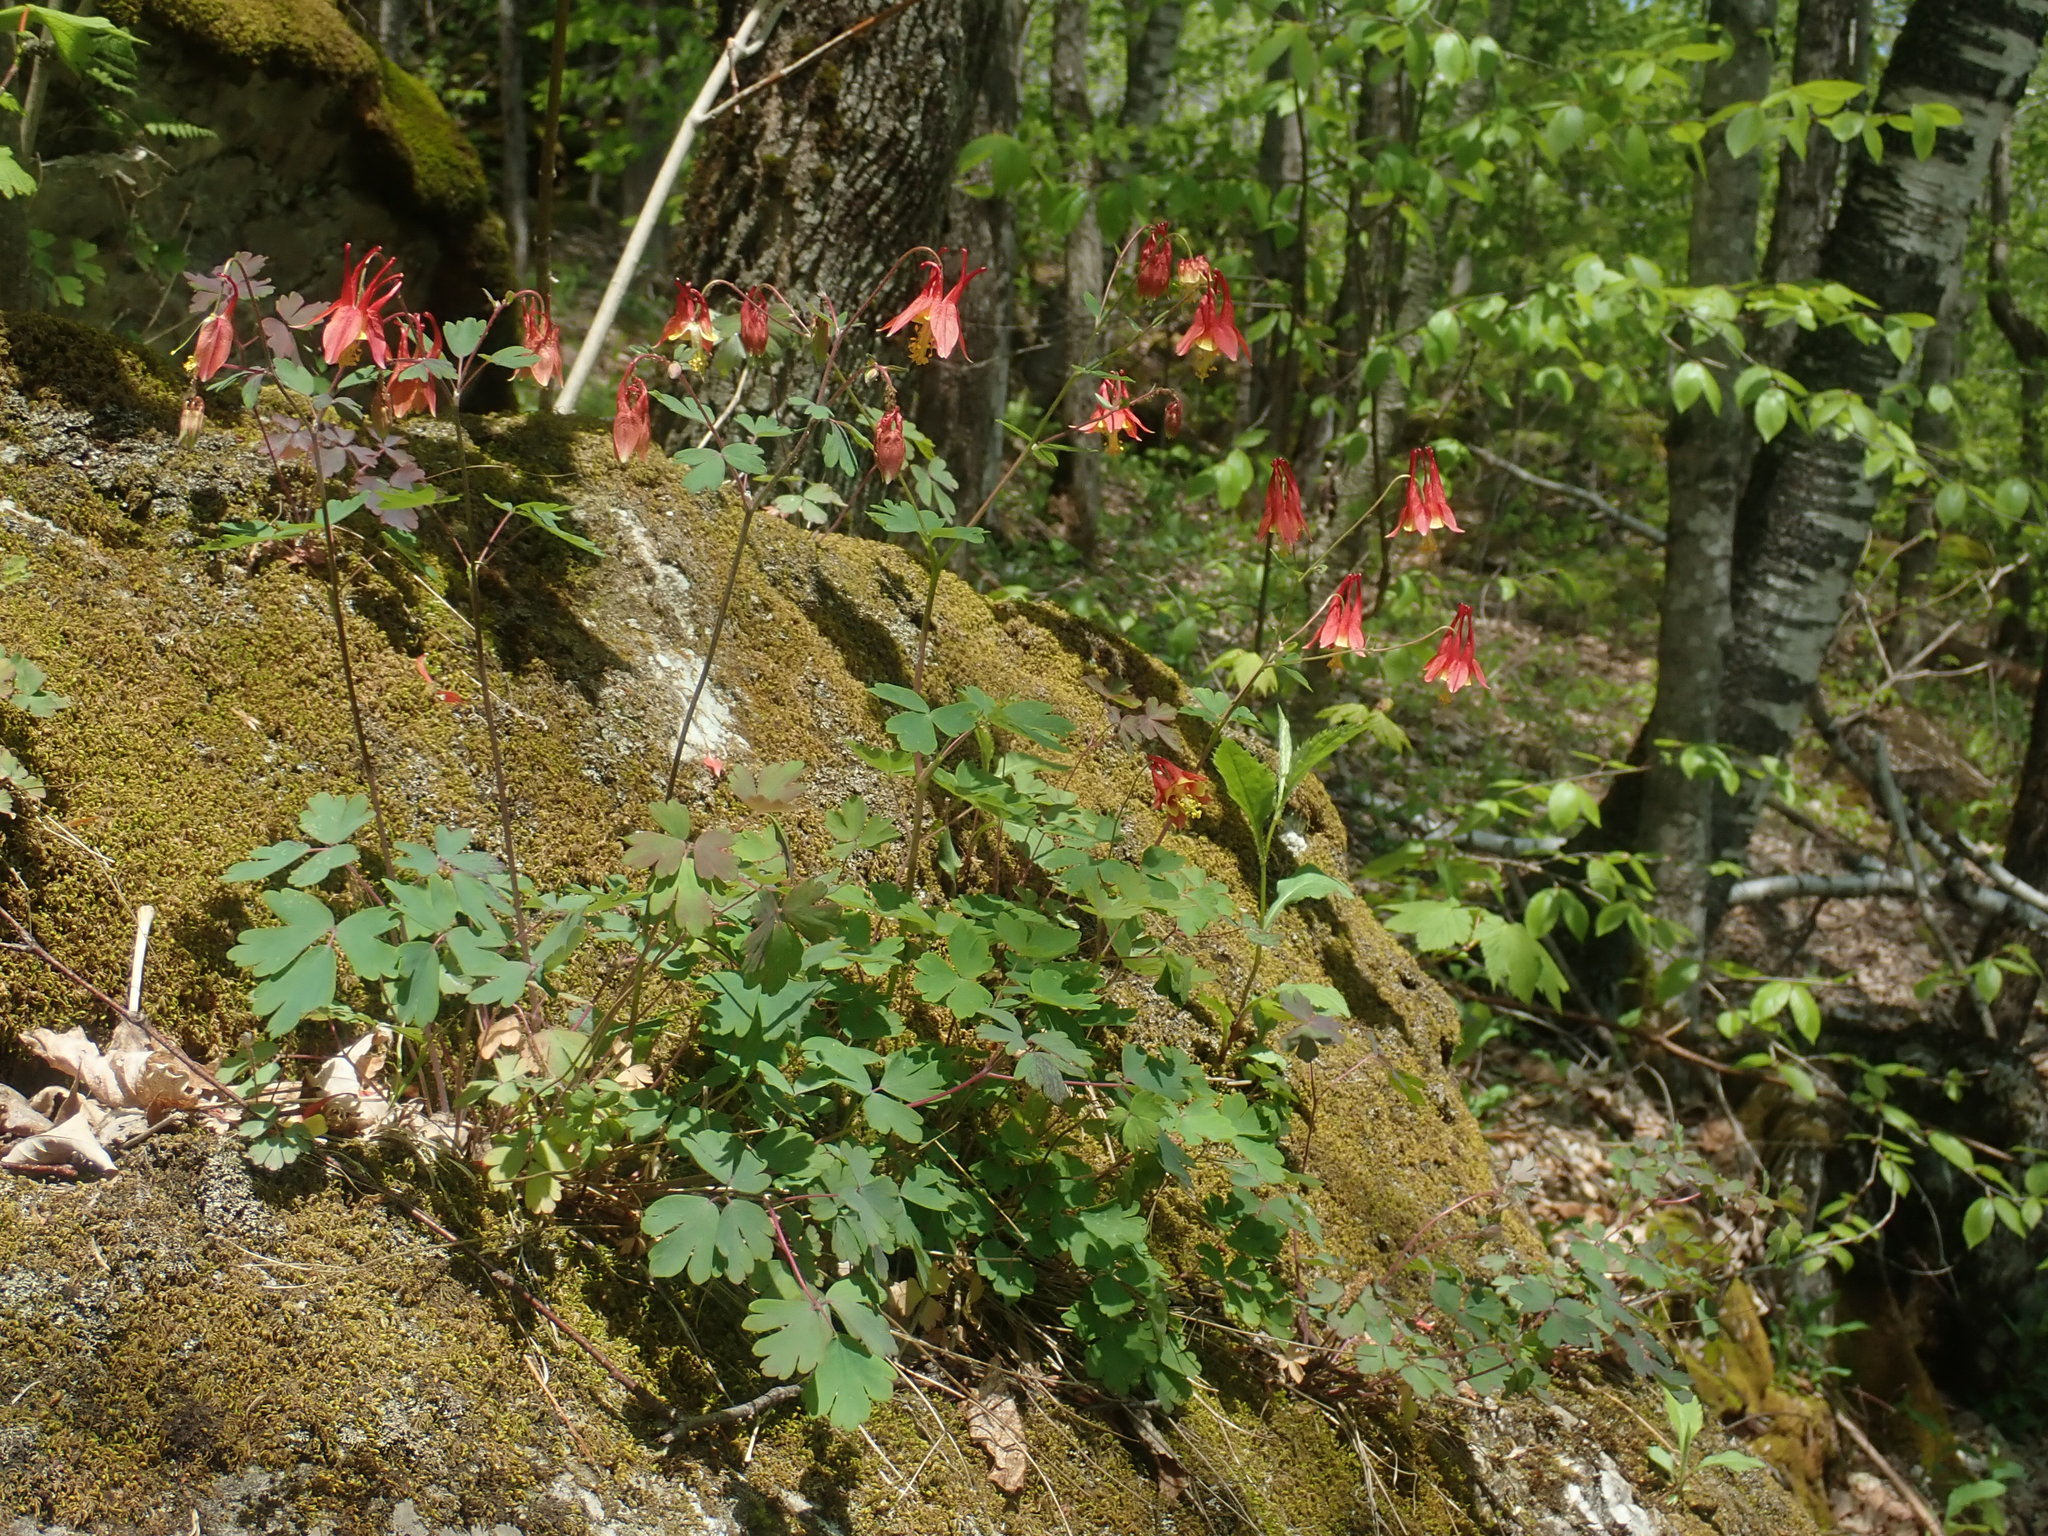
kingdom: Plantae
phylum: Tracheophyta
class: Magnoliopsida
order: Ranunculales
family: Ranunculaceae
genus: Aquilegia
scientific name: Aquilegia canadensis
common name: American columbine
